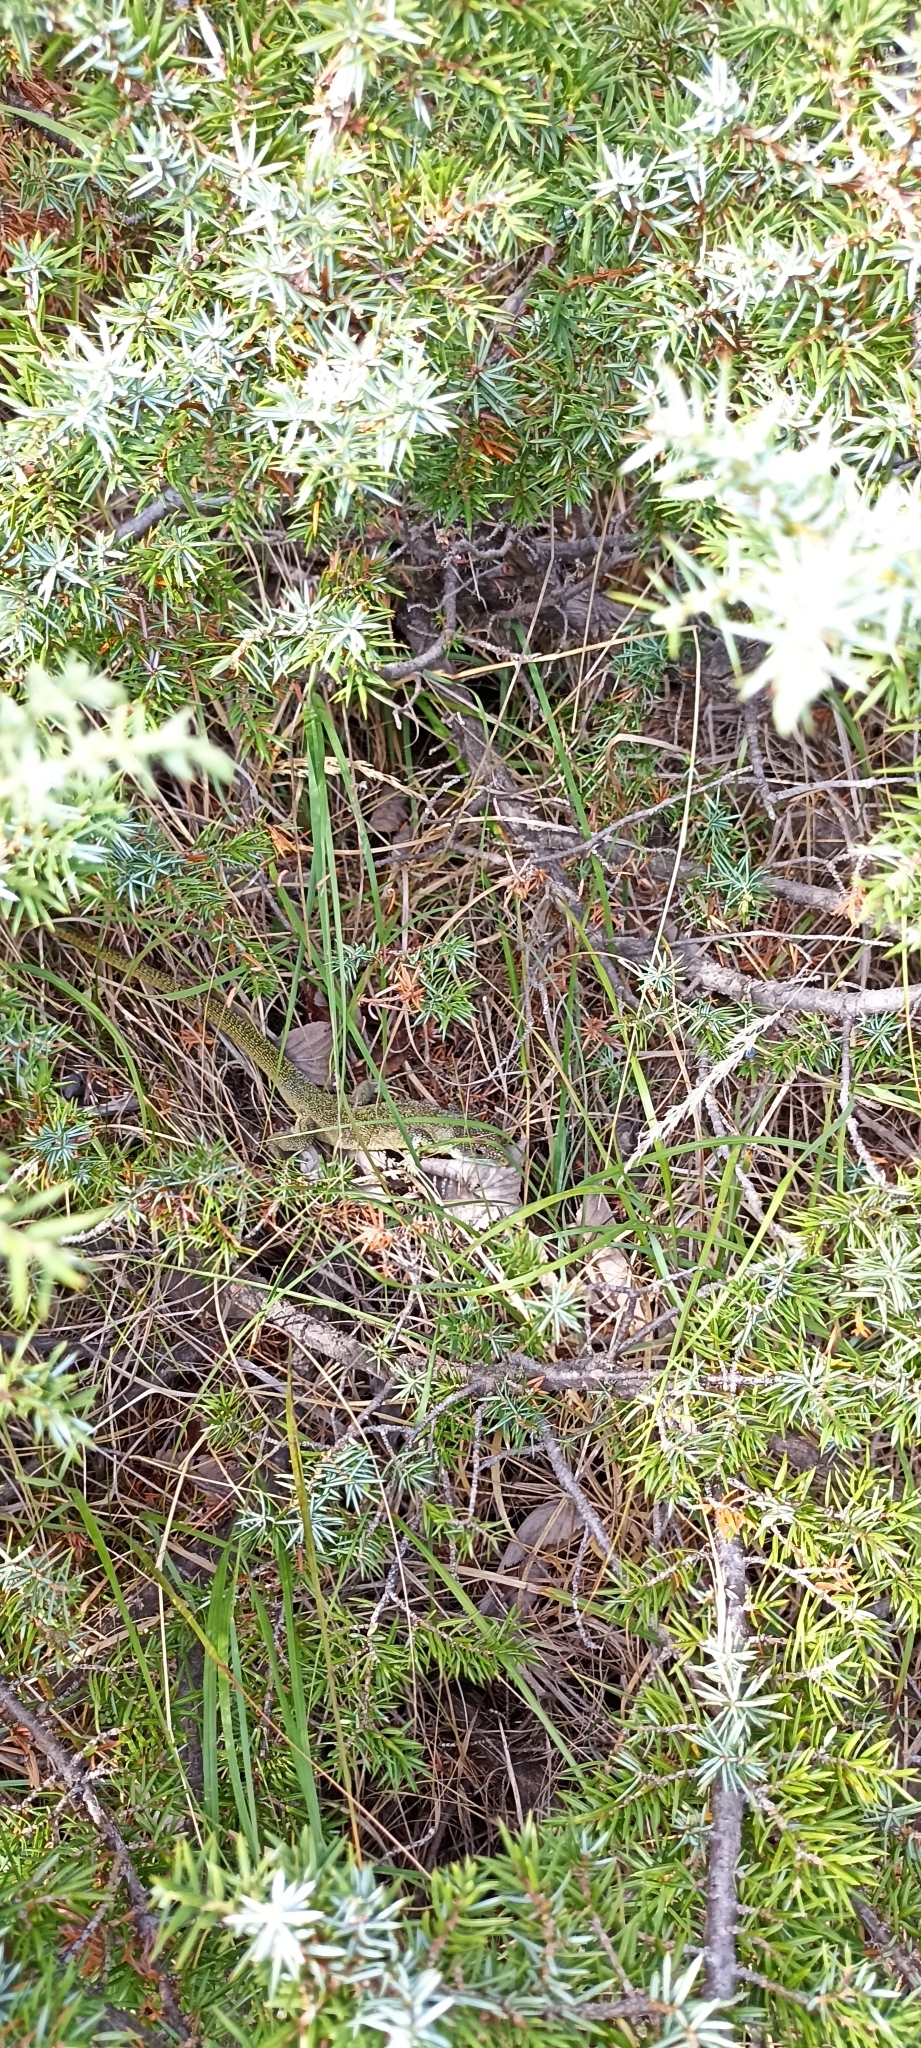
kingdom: Animalia
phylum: Chordata
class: Squamata
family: Lacertidae
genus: Lacerta
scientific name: Lacerta bilineata
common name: Western green lizard
